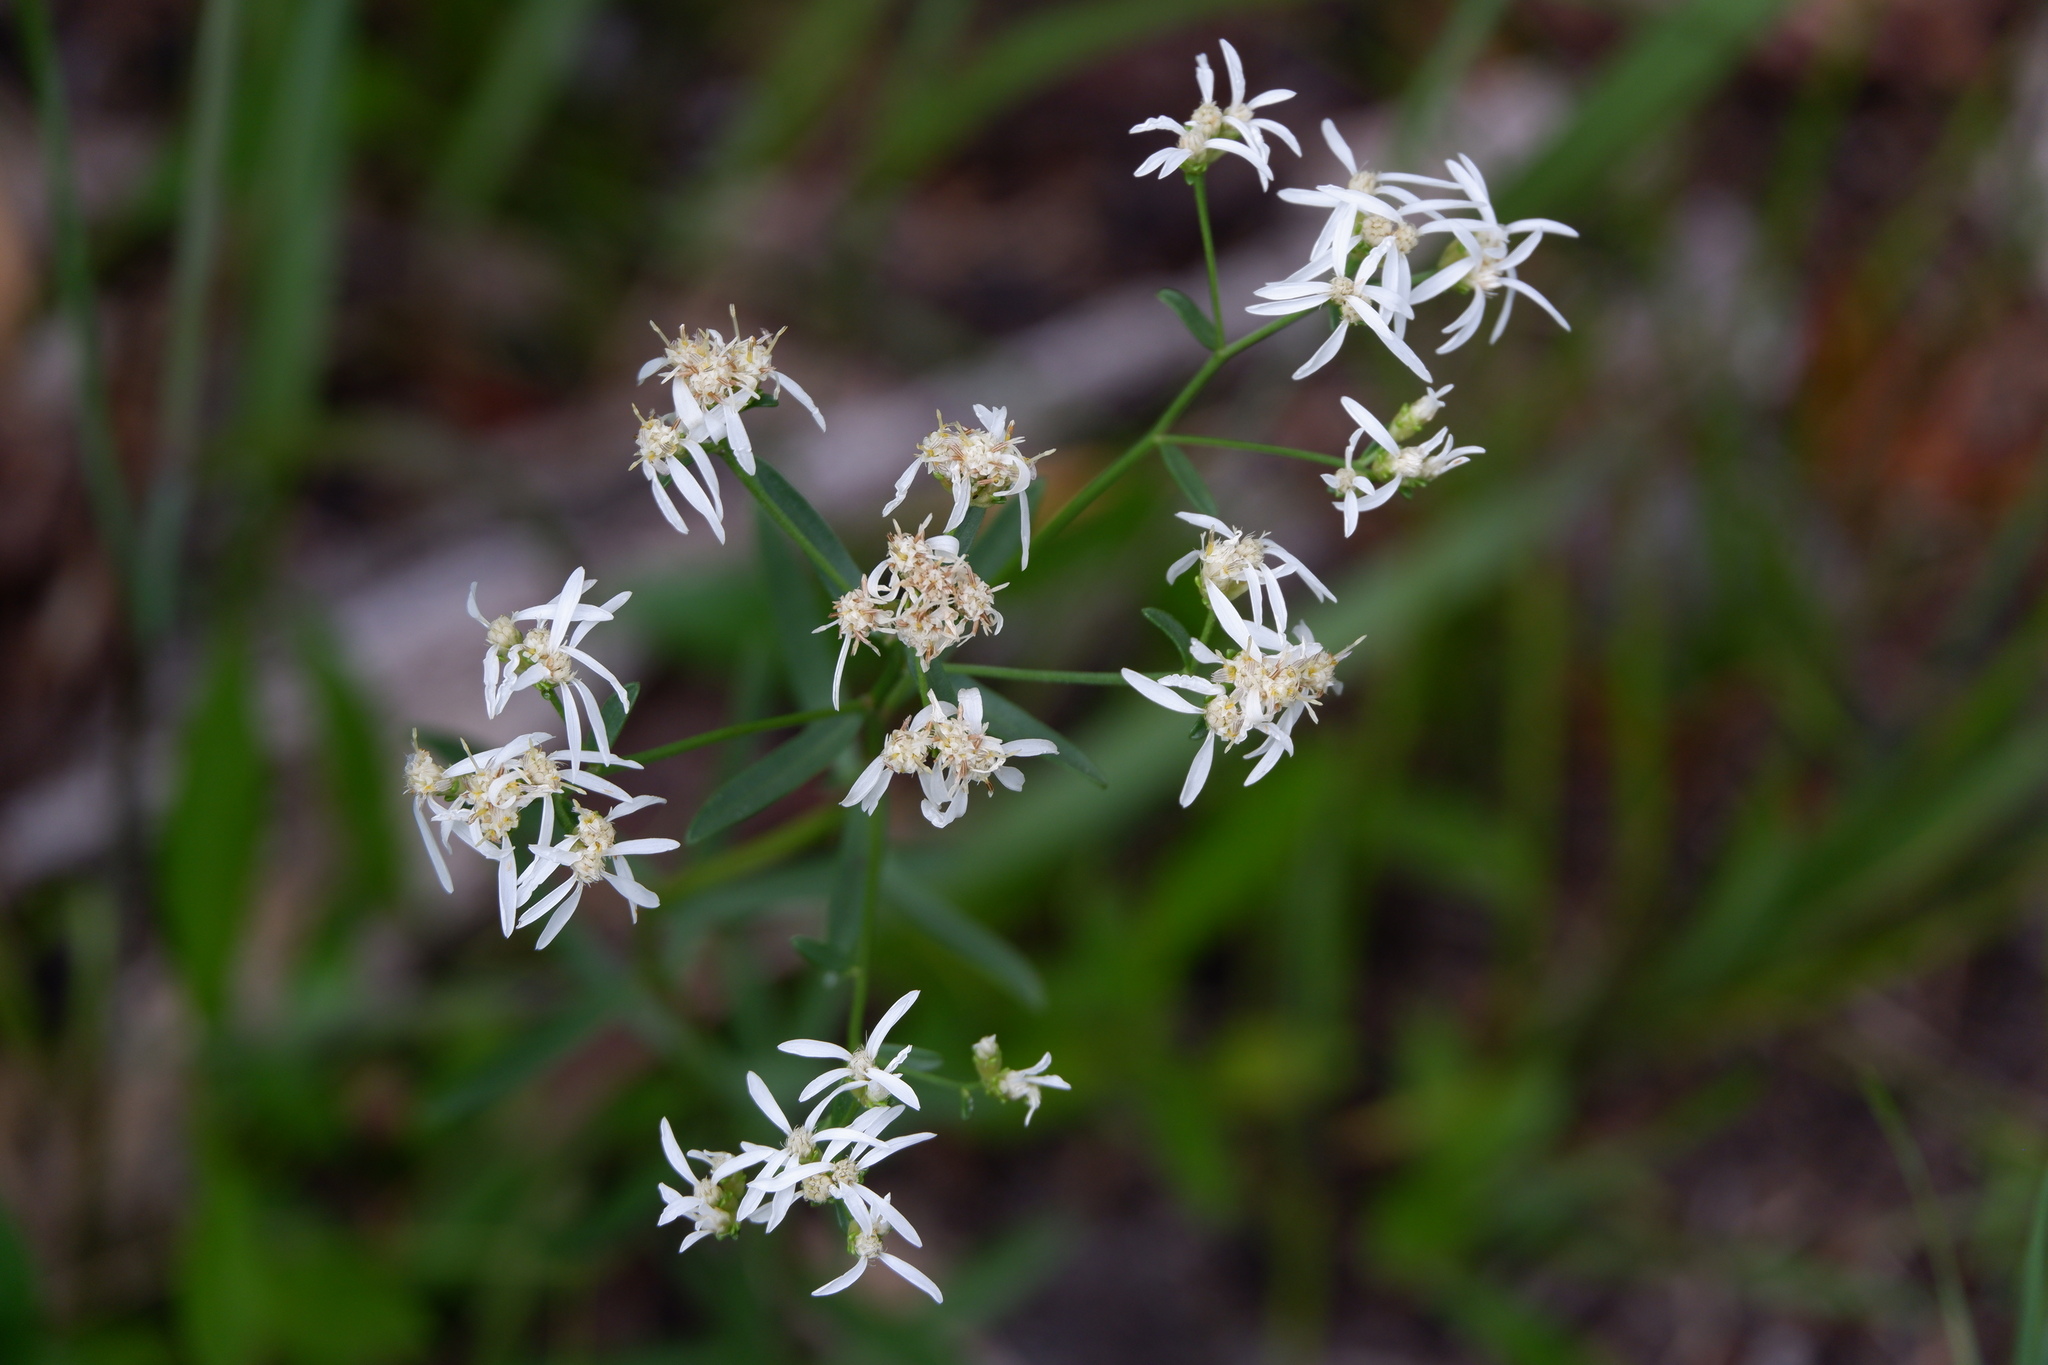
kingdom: Plantae
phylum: Tracheophyta
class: Magnoliopsida
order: Asterales
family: Asteraceae
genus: Sericocarpus
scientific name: Sericocarpus linifolius
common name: Narrow-leaf aster
